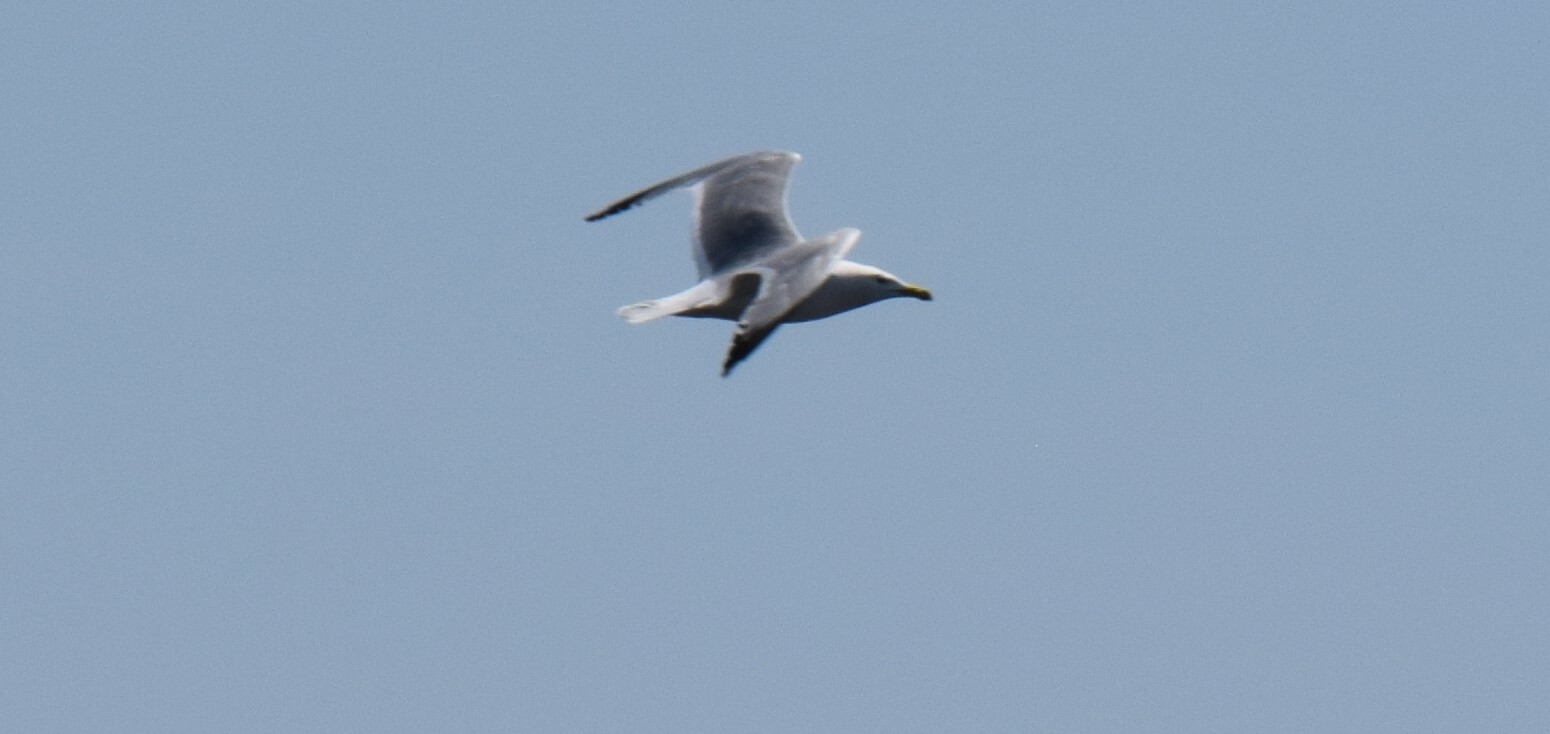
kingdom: Animalia
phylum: Chordata
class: Aves
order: Charadriiformes
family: Laridae
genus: Larus
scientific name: Larus argentatus
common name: Herring gull
